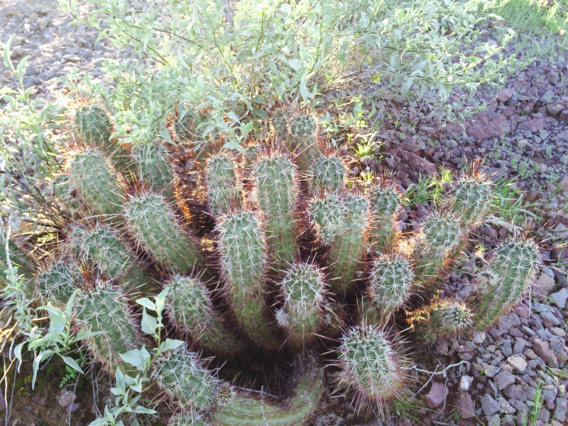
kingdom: Plantae
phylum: Tracheophyta
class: Magnoliopsida
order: Caryophyllales
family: Cactaceae
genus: Echinocereus
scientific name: Echinocereus fasciculatus
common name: Bundle hedgehog
